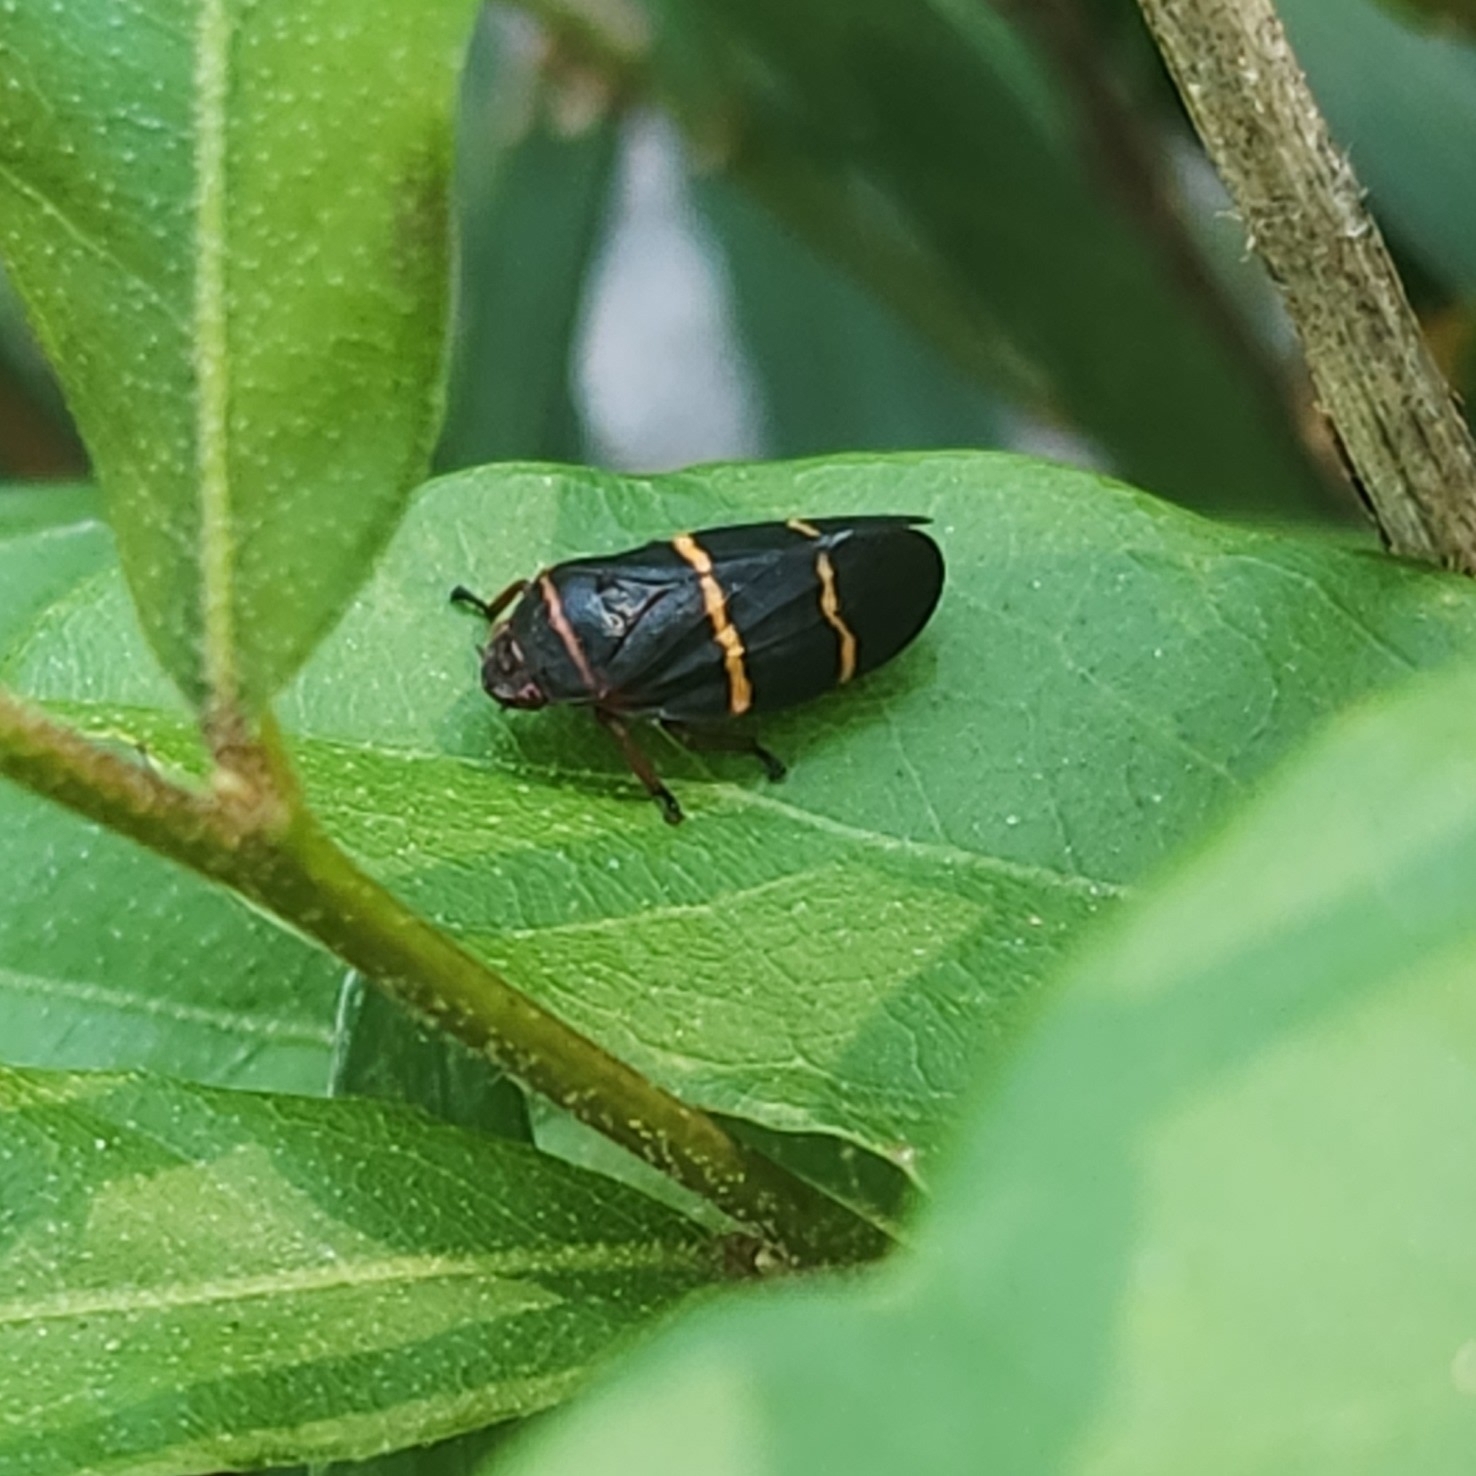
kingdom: Animalia
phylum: Arthropoda
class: Insecta
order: Hemiptera
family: Cercopidae
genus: Prosapia
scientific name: Prosapia bicincta
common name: Twolined spittlebug
